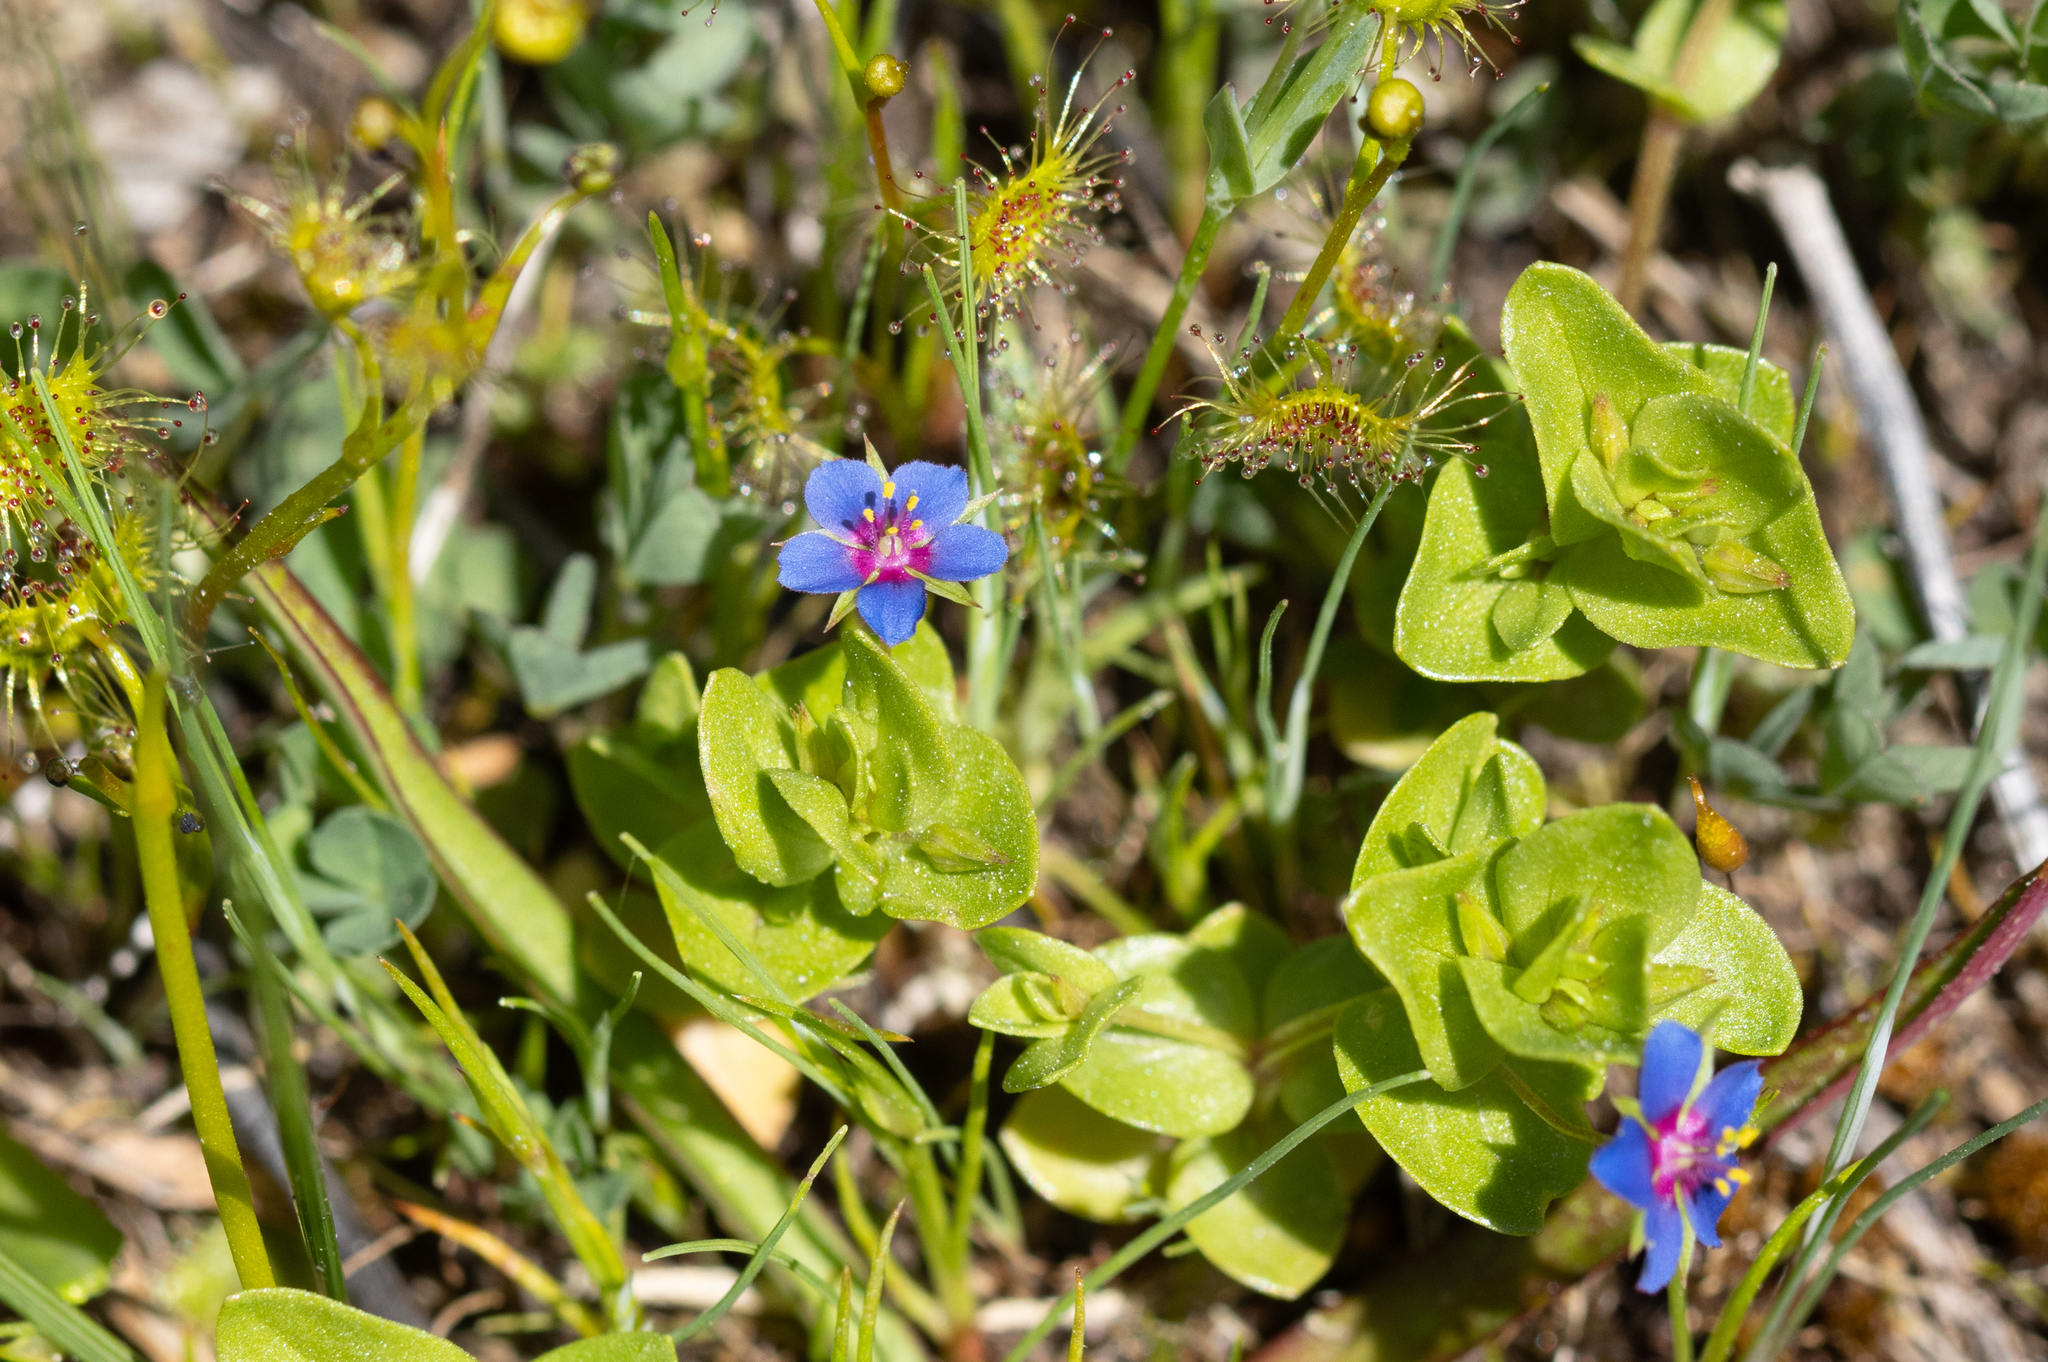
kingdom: Plantae
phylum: Tracheophyta
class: Magnoliopsida
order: Ericales
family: Primulaceae
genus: Lysimachia
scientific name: Lysimachia loeflingii
